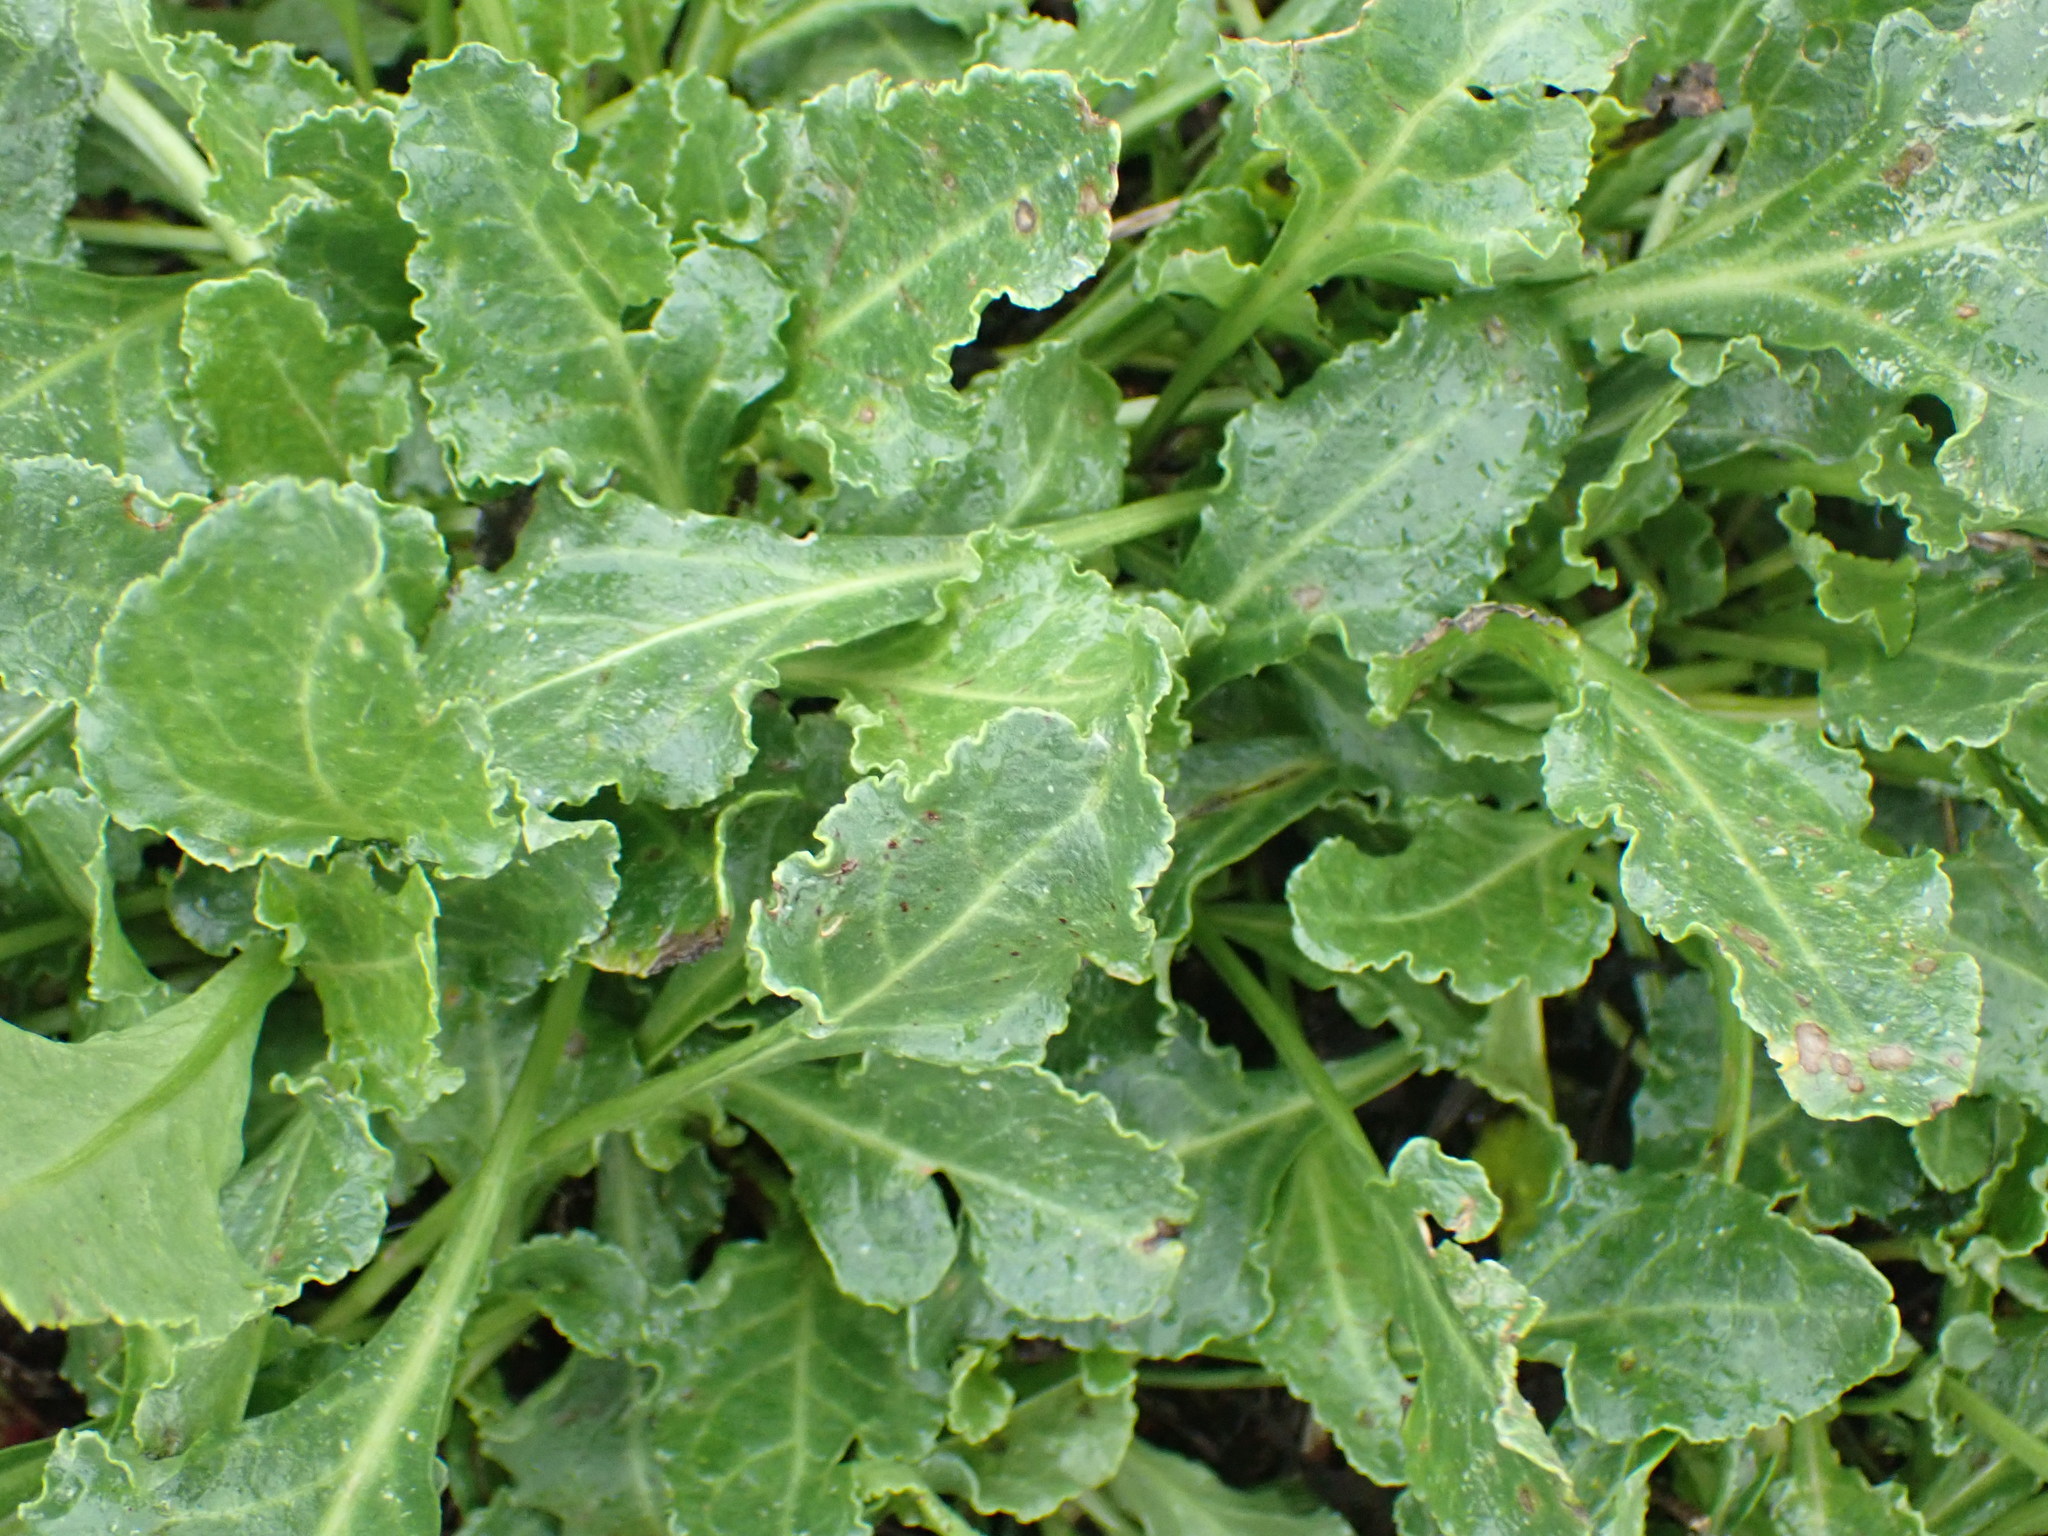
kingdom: Plantae
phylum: Tracheophyta
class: Magnoliopsida
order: Caryophyllales
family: Amaranthaceae
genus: Beta
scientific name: Beta vulgaris
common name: Beet
